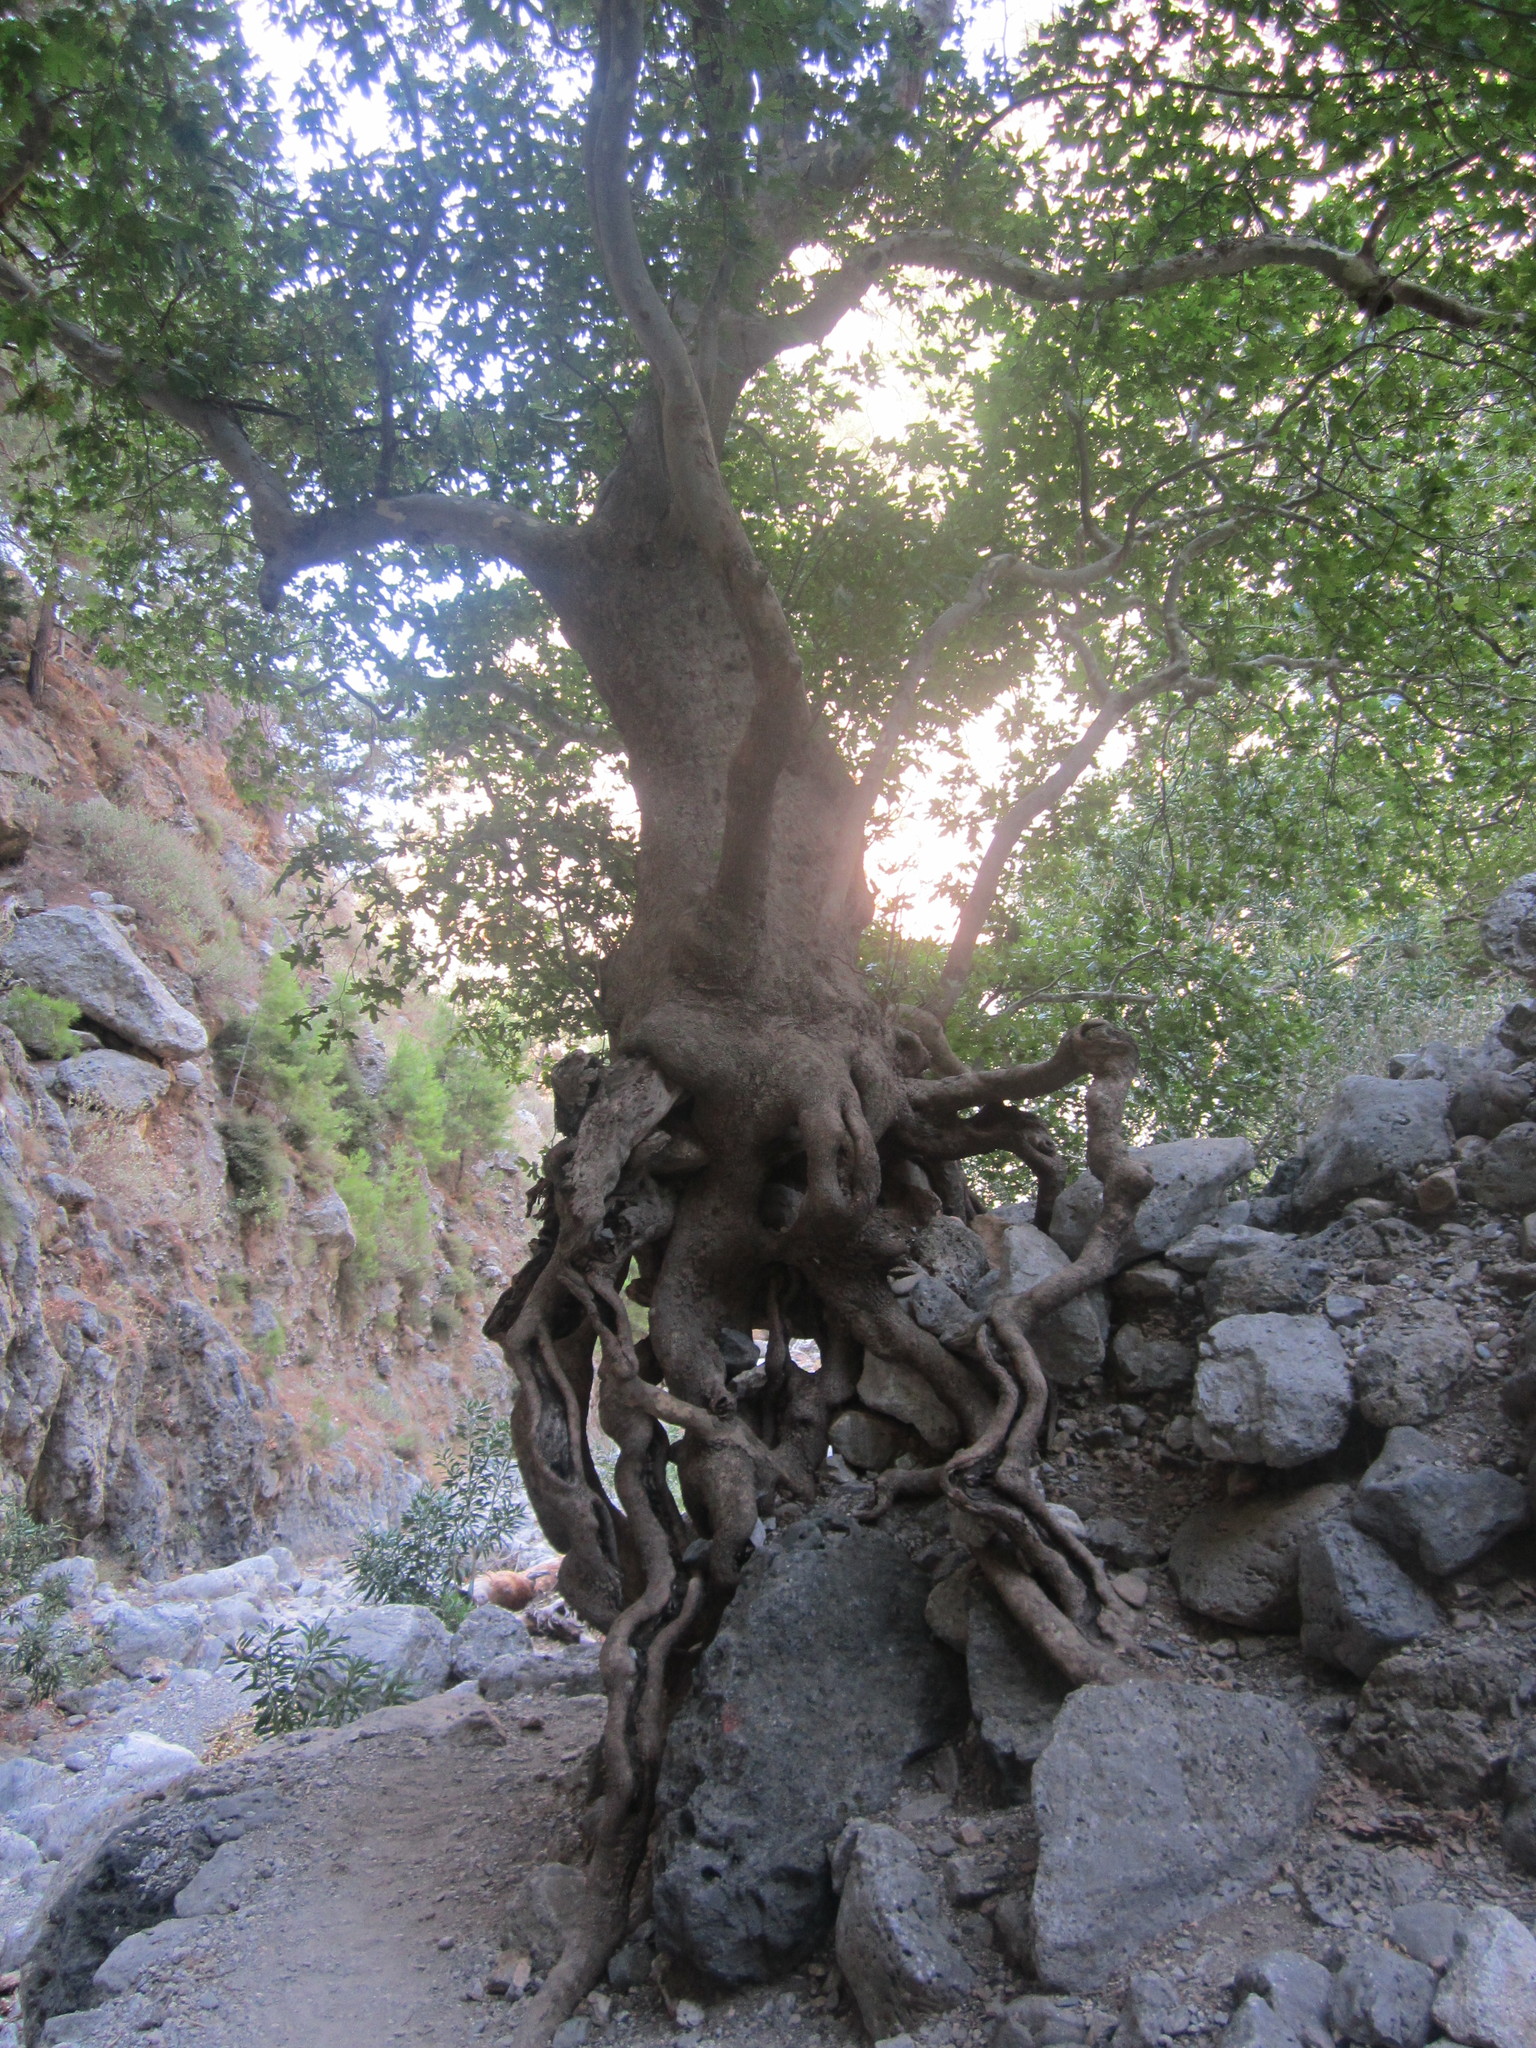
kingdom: Plantae
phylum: Tracheophyta
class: Magnoliopsida
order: Proteales
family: Platanaceae
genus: Platanus
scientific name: Platanus orientalis
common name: Oriental plane
